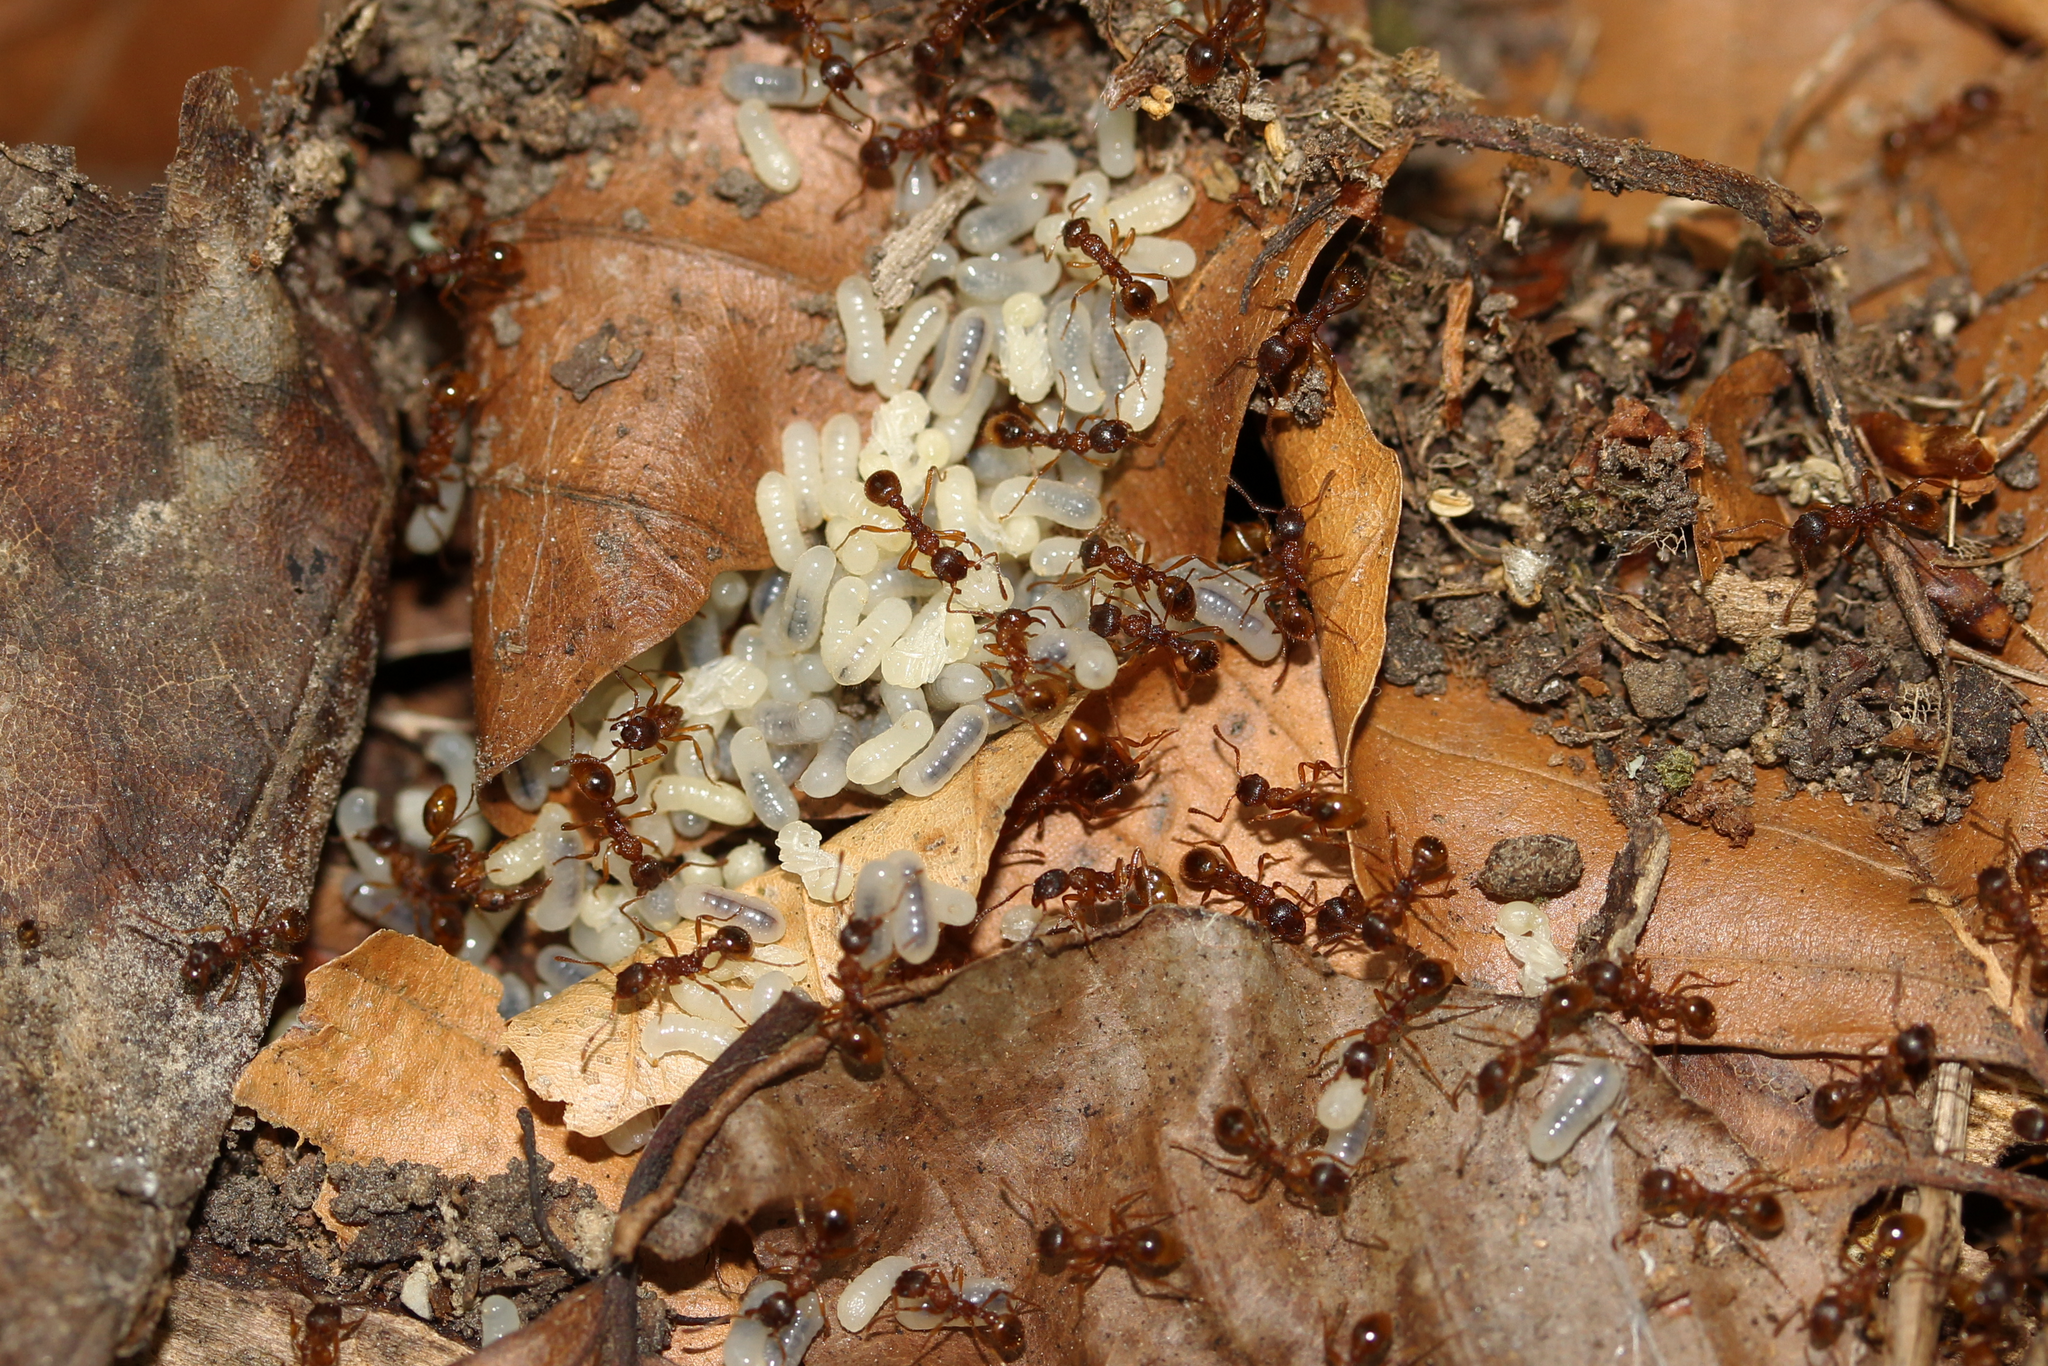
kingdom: Animalia
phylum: Arthropoda
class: Insecta
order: Hymenoptera
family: Formicidae
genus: Myrmica
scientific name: Myrmica rubra
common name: European fire ant
